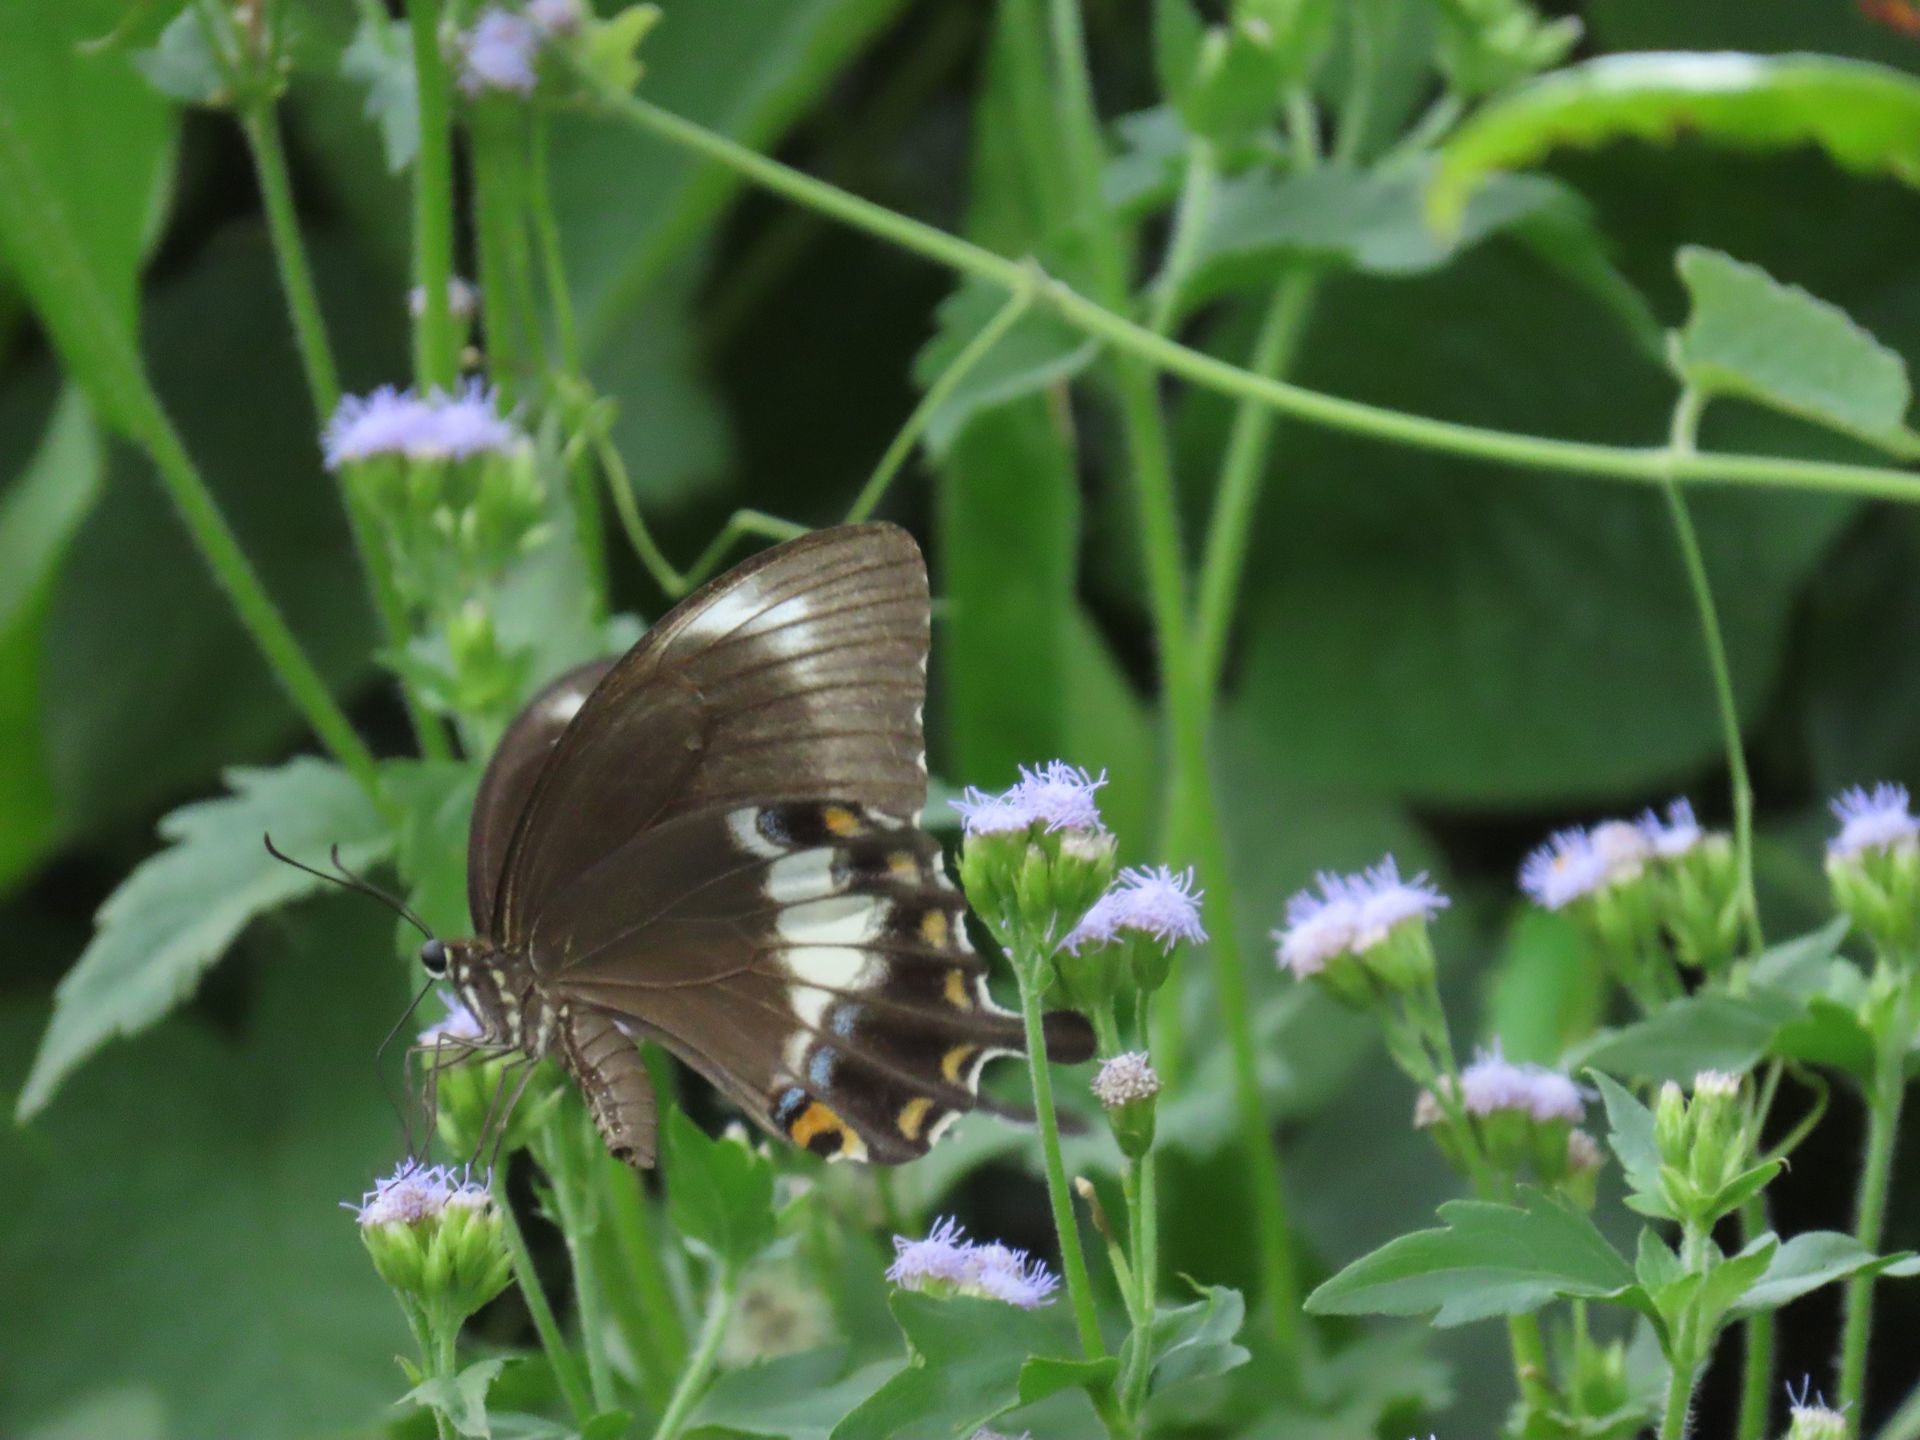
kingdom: Animalia
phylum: Arthropoda
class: Insecta
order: Lepidoptera
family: Lycaenidae
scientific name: Lycaenidae
